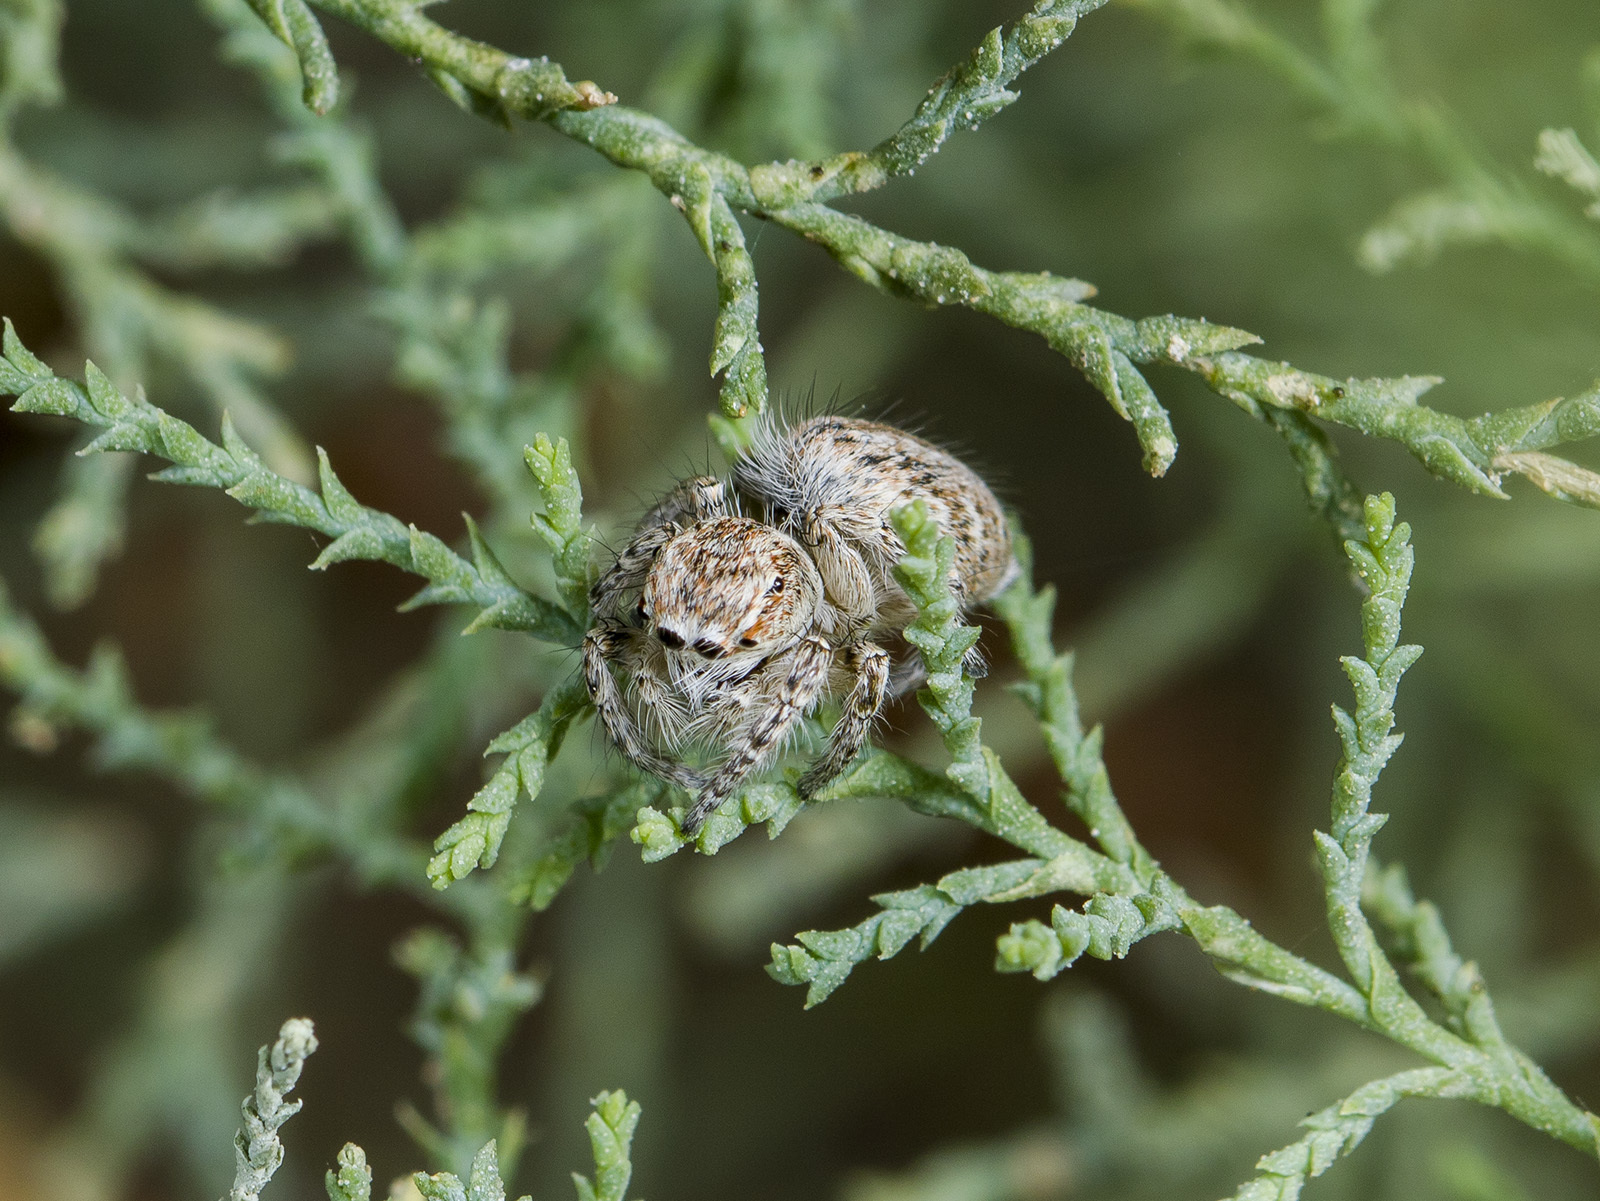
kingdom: Animalia
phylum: Arthropoda
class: Arachnida
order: Araneae
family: Salticidae
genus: Mogrus
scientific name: Mogrus antoninus
